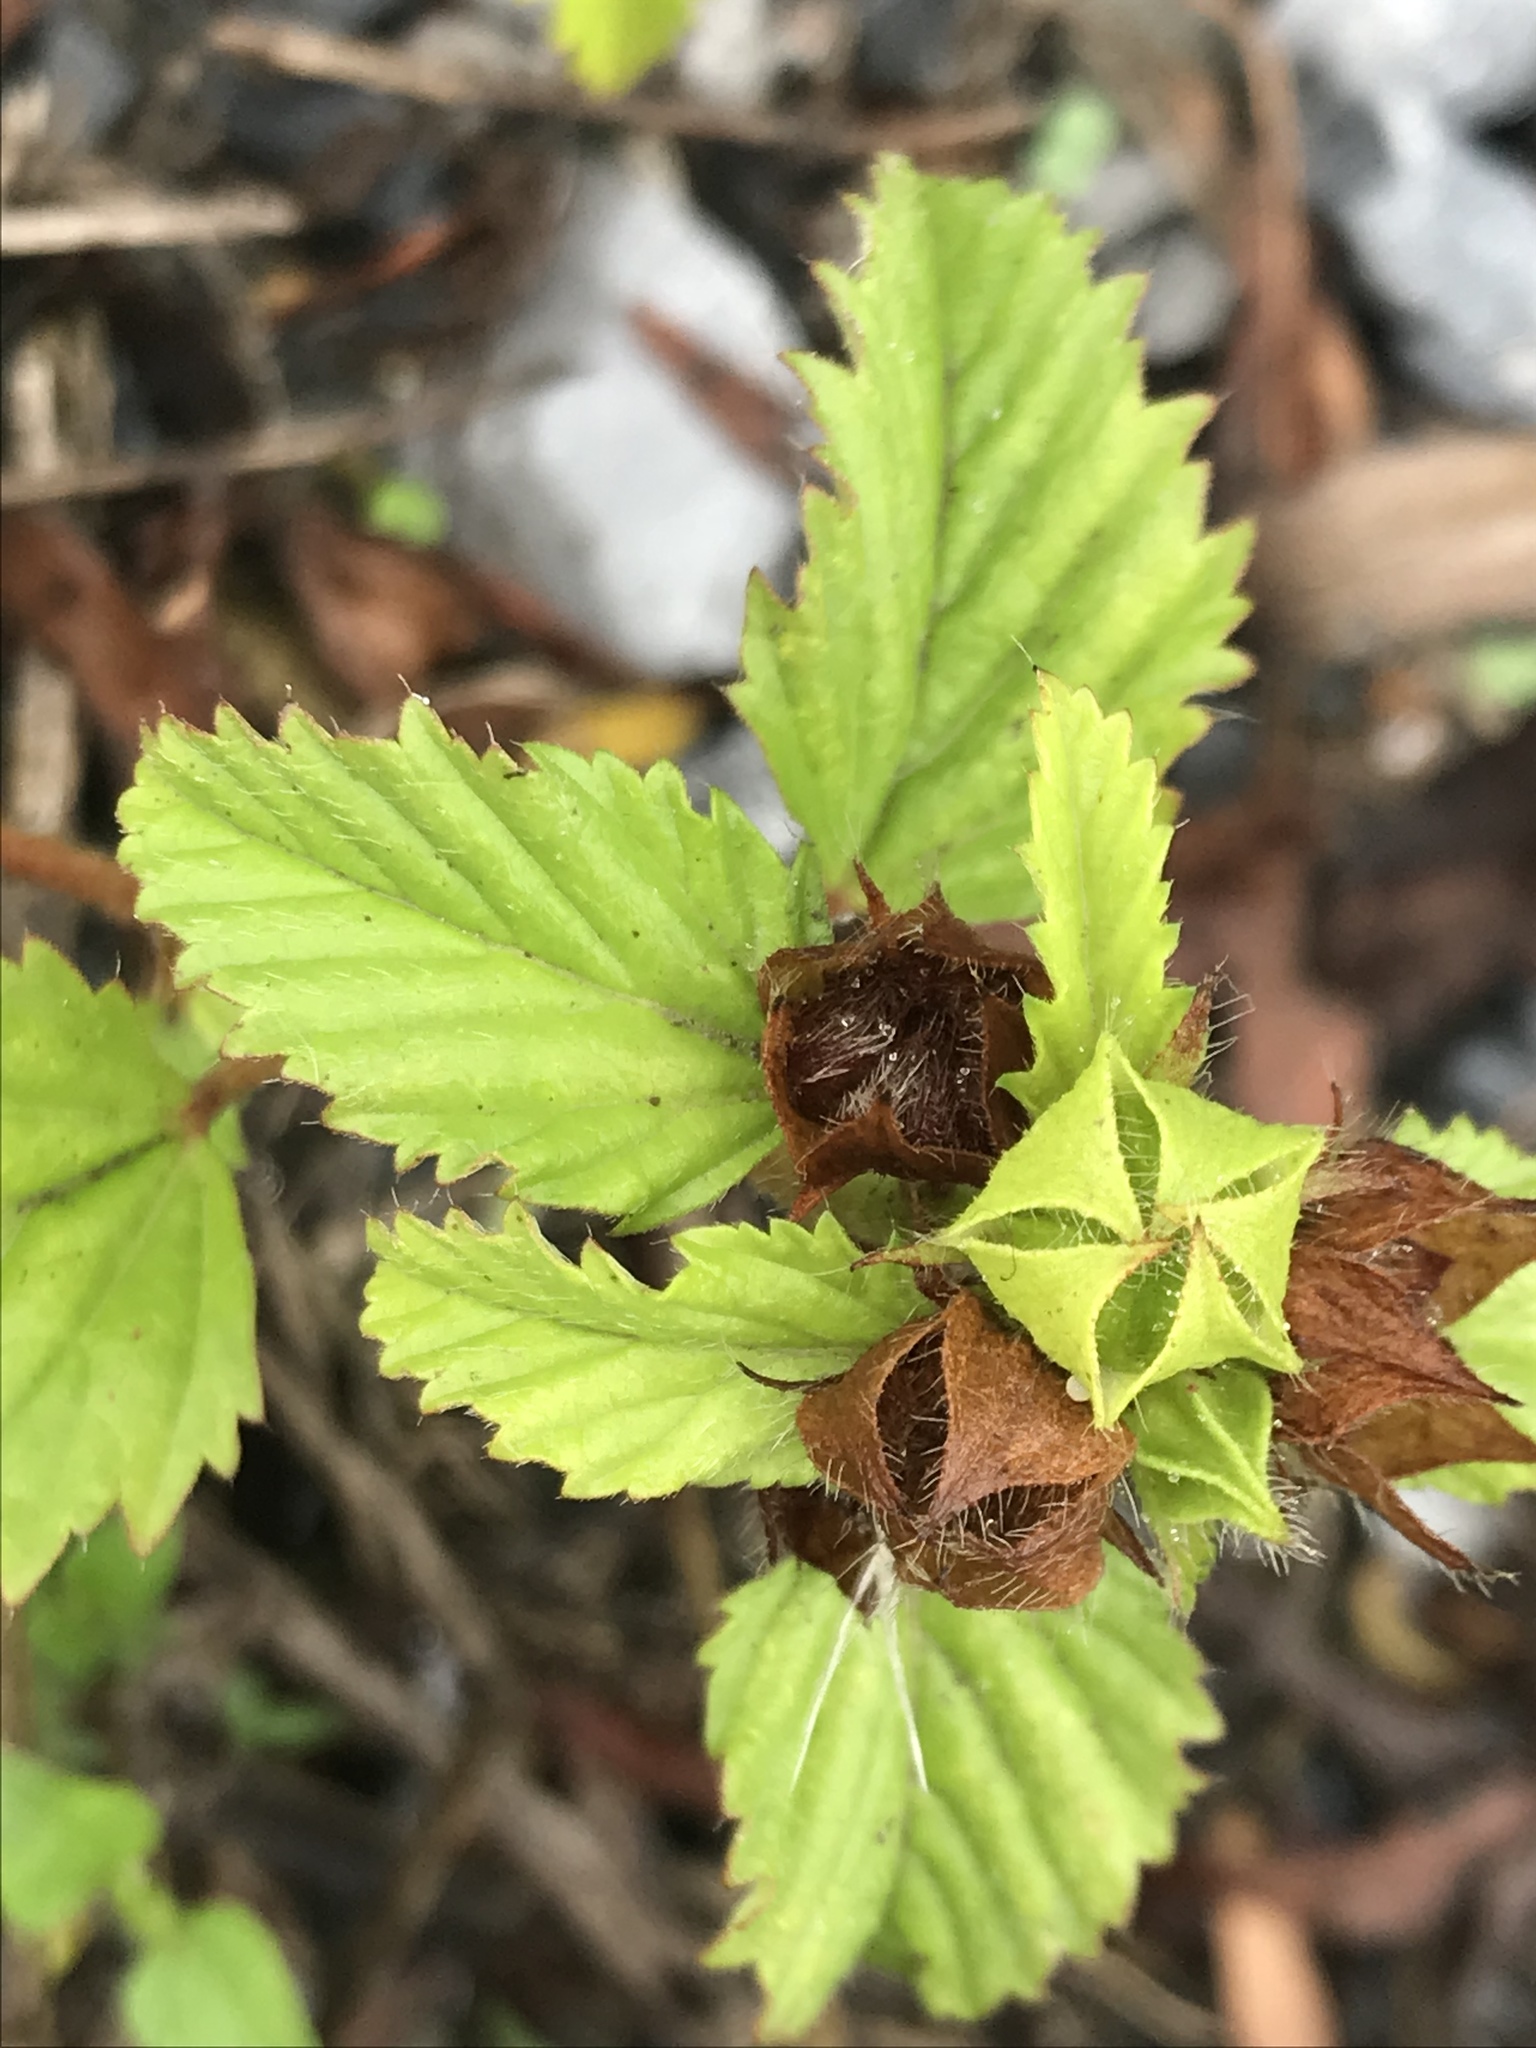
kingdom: Plantae
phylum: Tracheophyta
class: Magnoliopsida
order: Malvales
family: Malvaceae
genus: Malvastrum
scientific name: Malvastrum coromandelianum
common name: Threelobe false mallow
